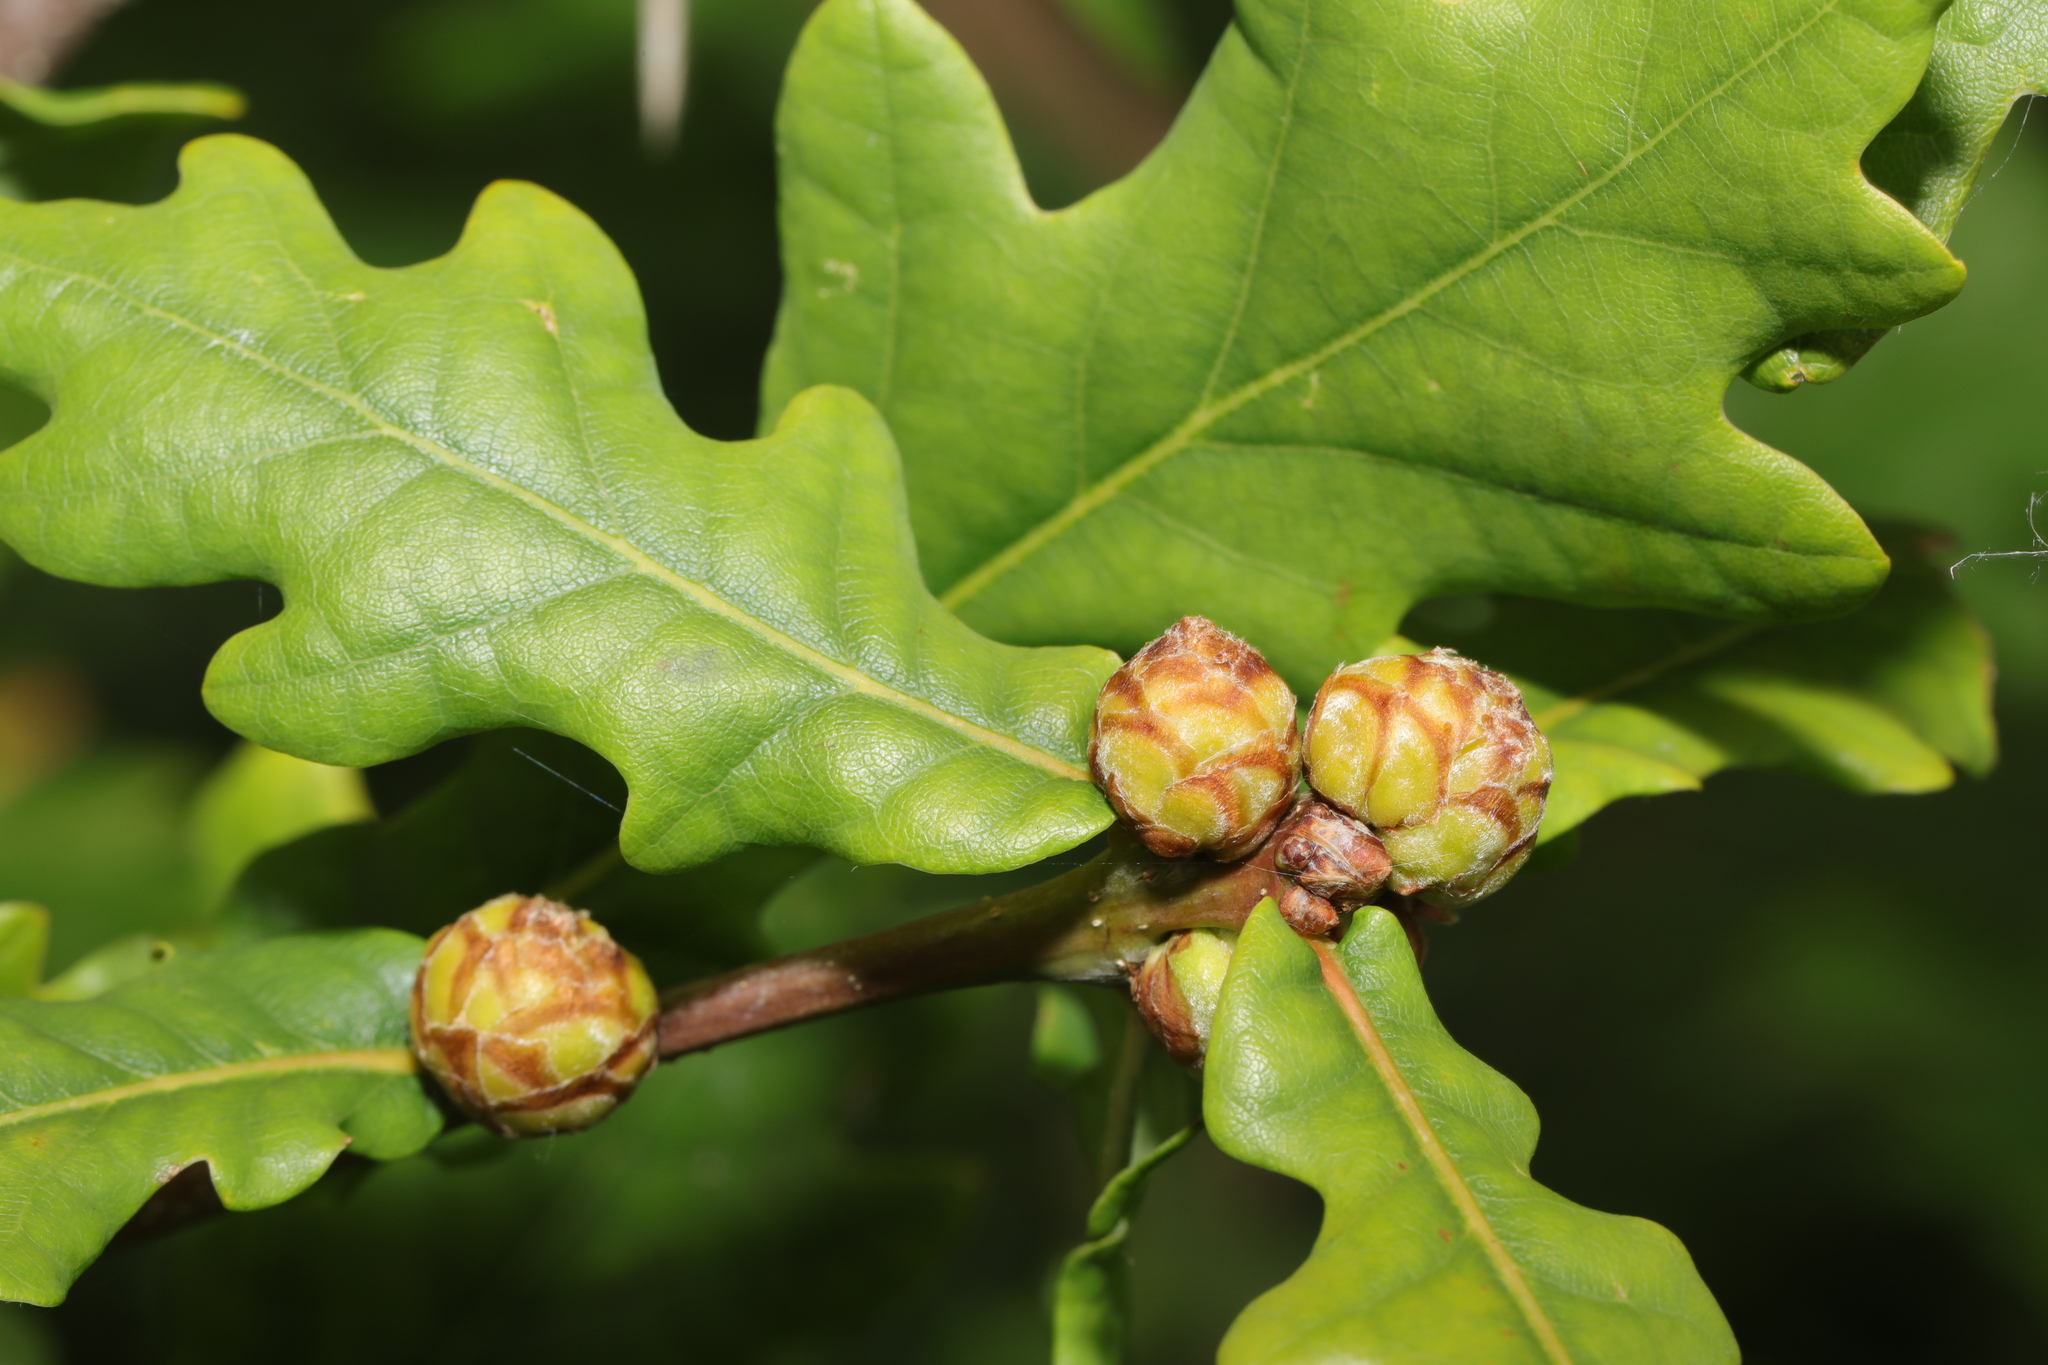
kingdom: Animalia
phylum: Arthropoda
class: Insecta
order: Hymenoptera
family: Cynipidae
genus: Andricus
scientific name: Andricus foecundatrix
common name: Artichoke gall
